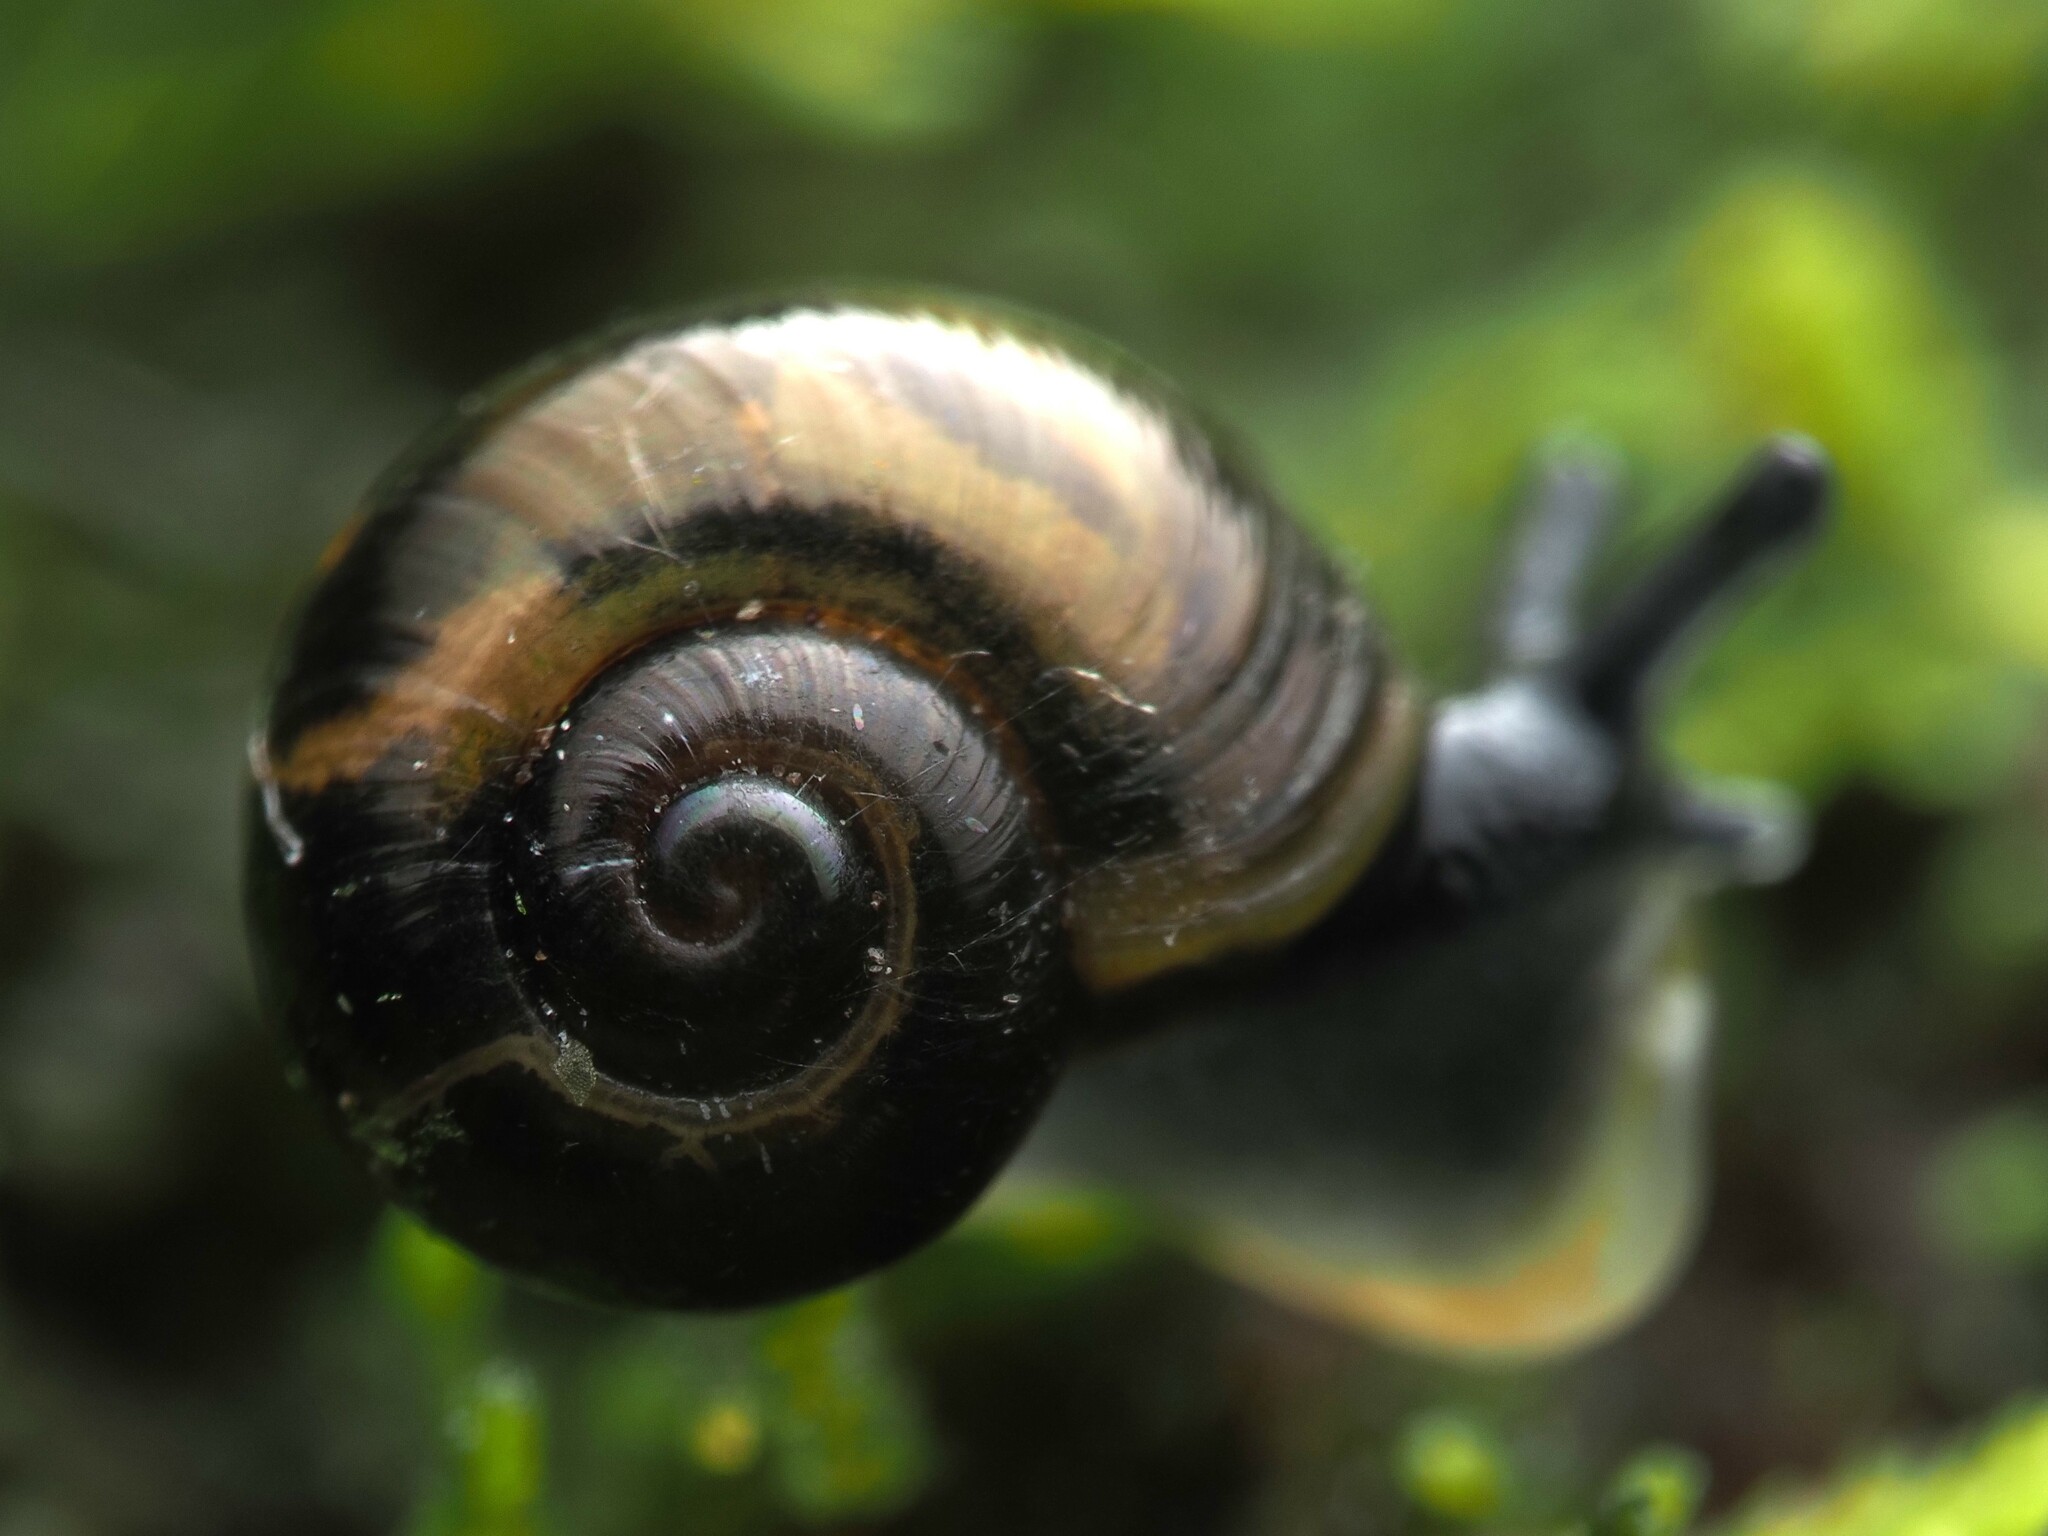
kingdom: Animalia
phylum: Mollusca
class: Gastropoda
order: Stylommatophora
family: Charopidae
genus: Flammulina
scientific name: Flammulina perdita
